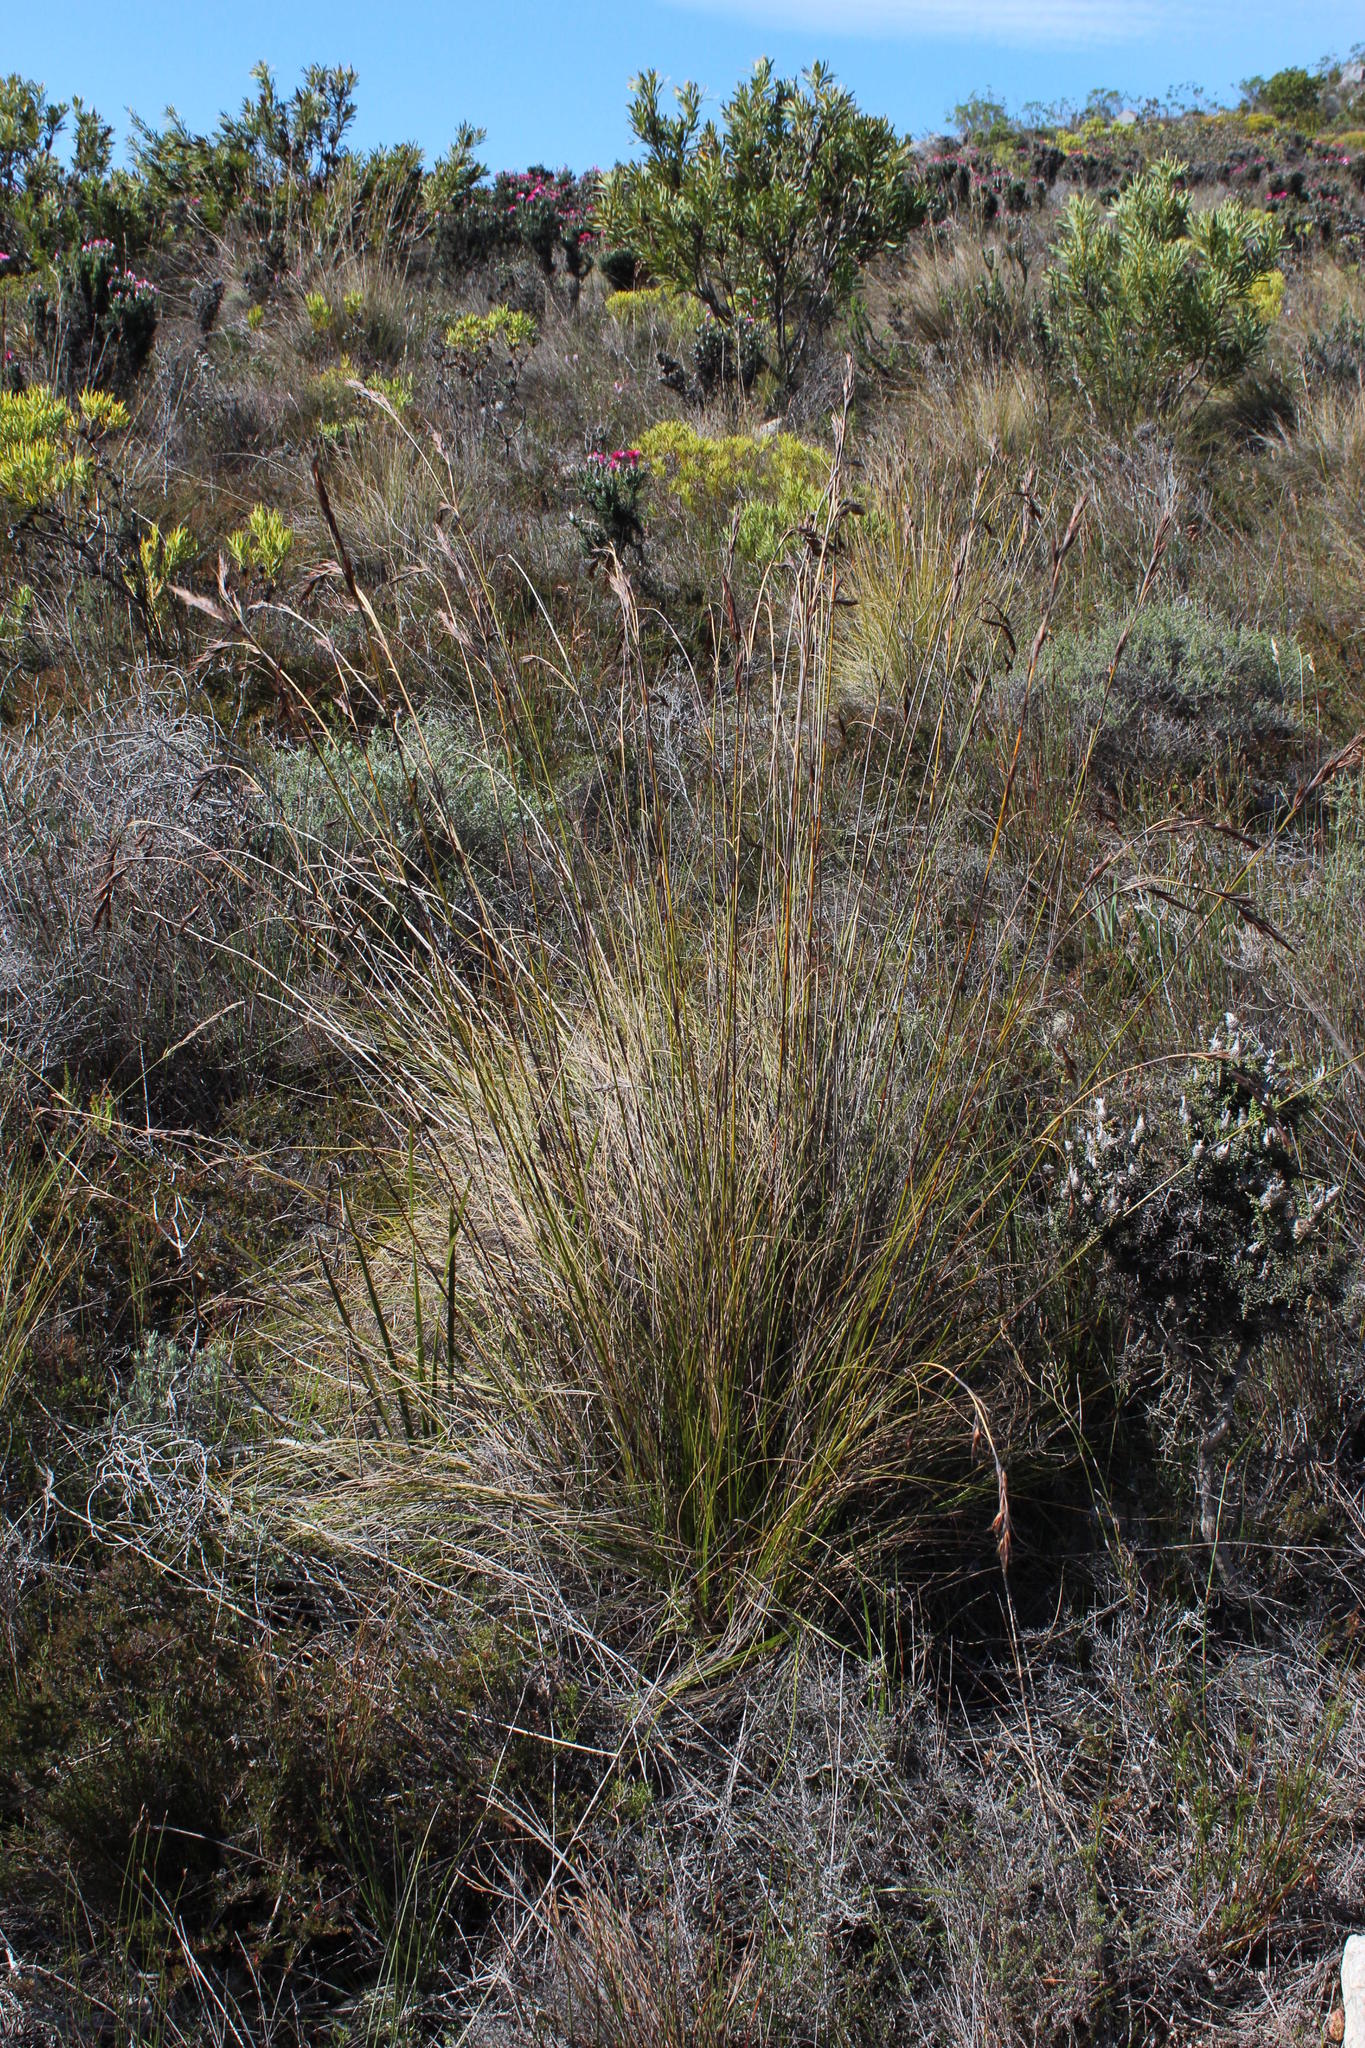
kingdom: Plantae
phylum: Tracheophyta
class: Liliopsida
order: Poales
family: Cyperaceae
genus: Tetraria
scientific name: Tetraria ustulata
